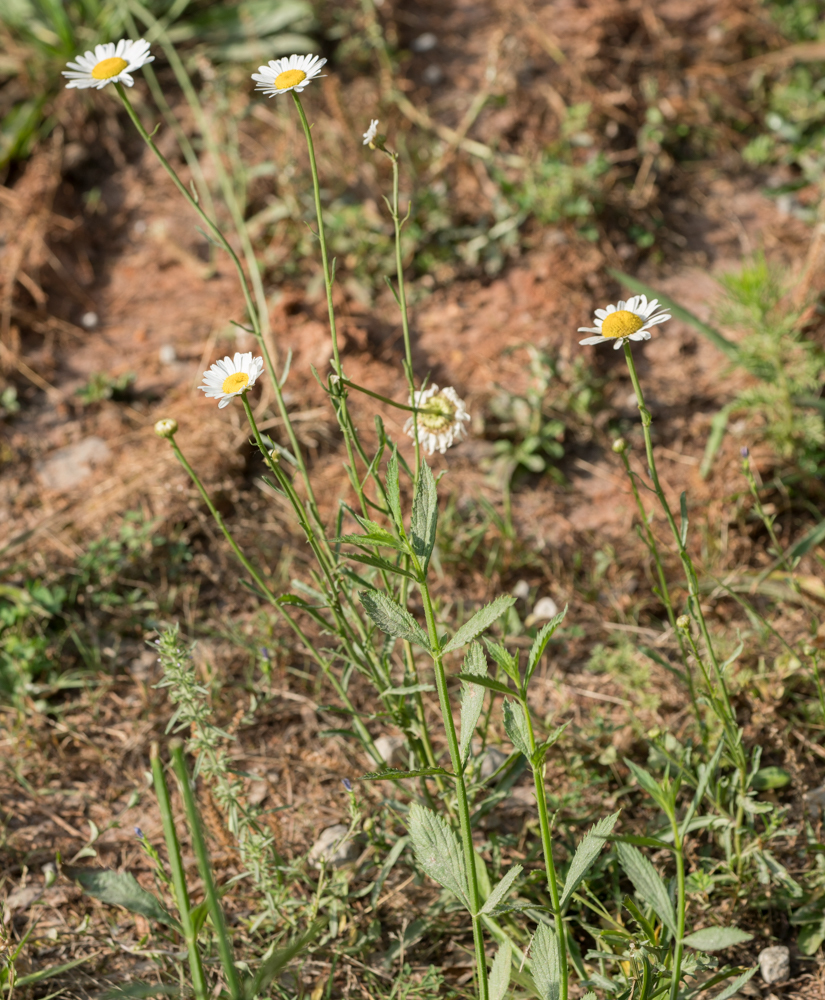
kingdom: Plantae
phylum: Tracheophyta
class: Magnoliopsida
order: Asterales
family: Asteraceae
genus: Leucanthemum
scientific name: Leucanthemum vulgare
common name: Oxeye daisy
